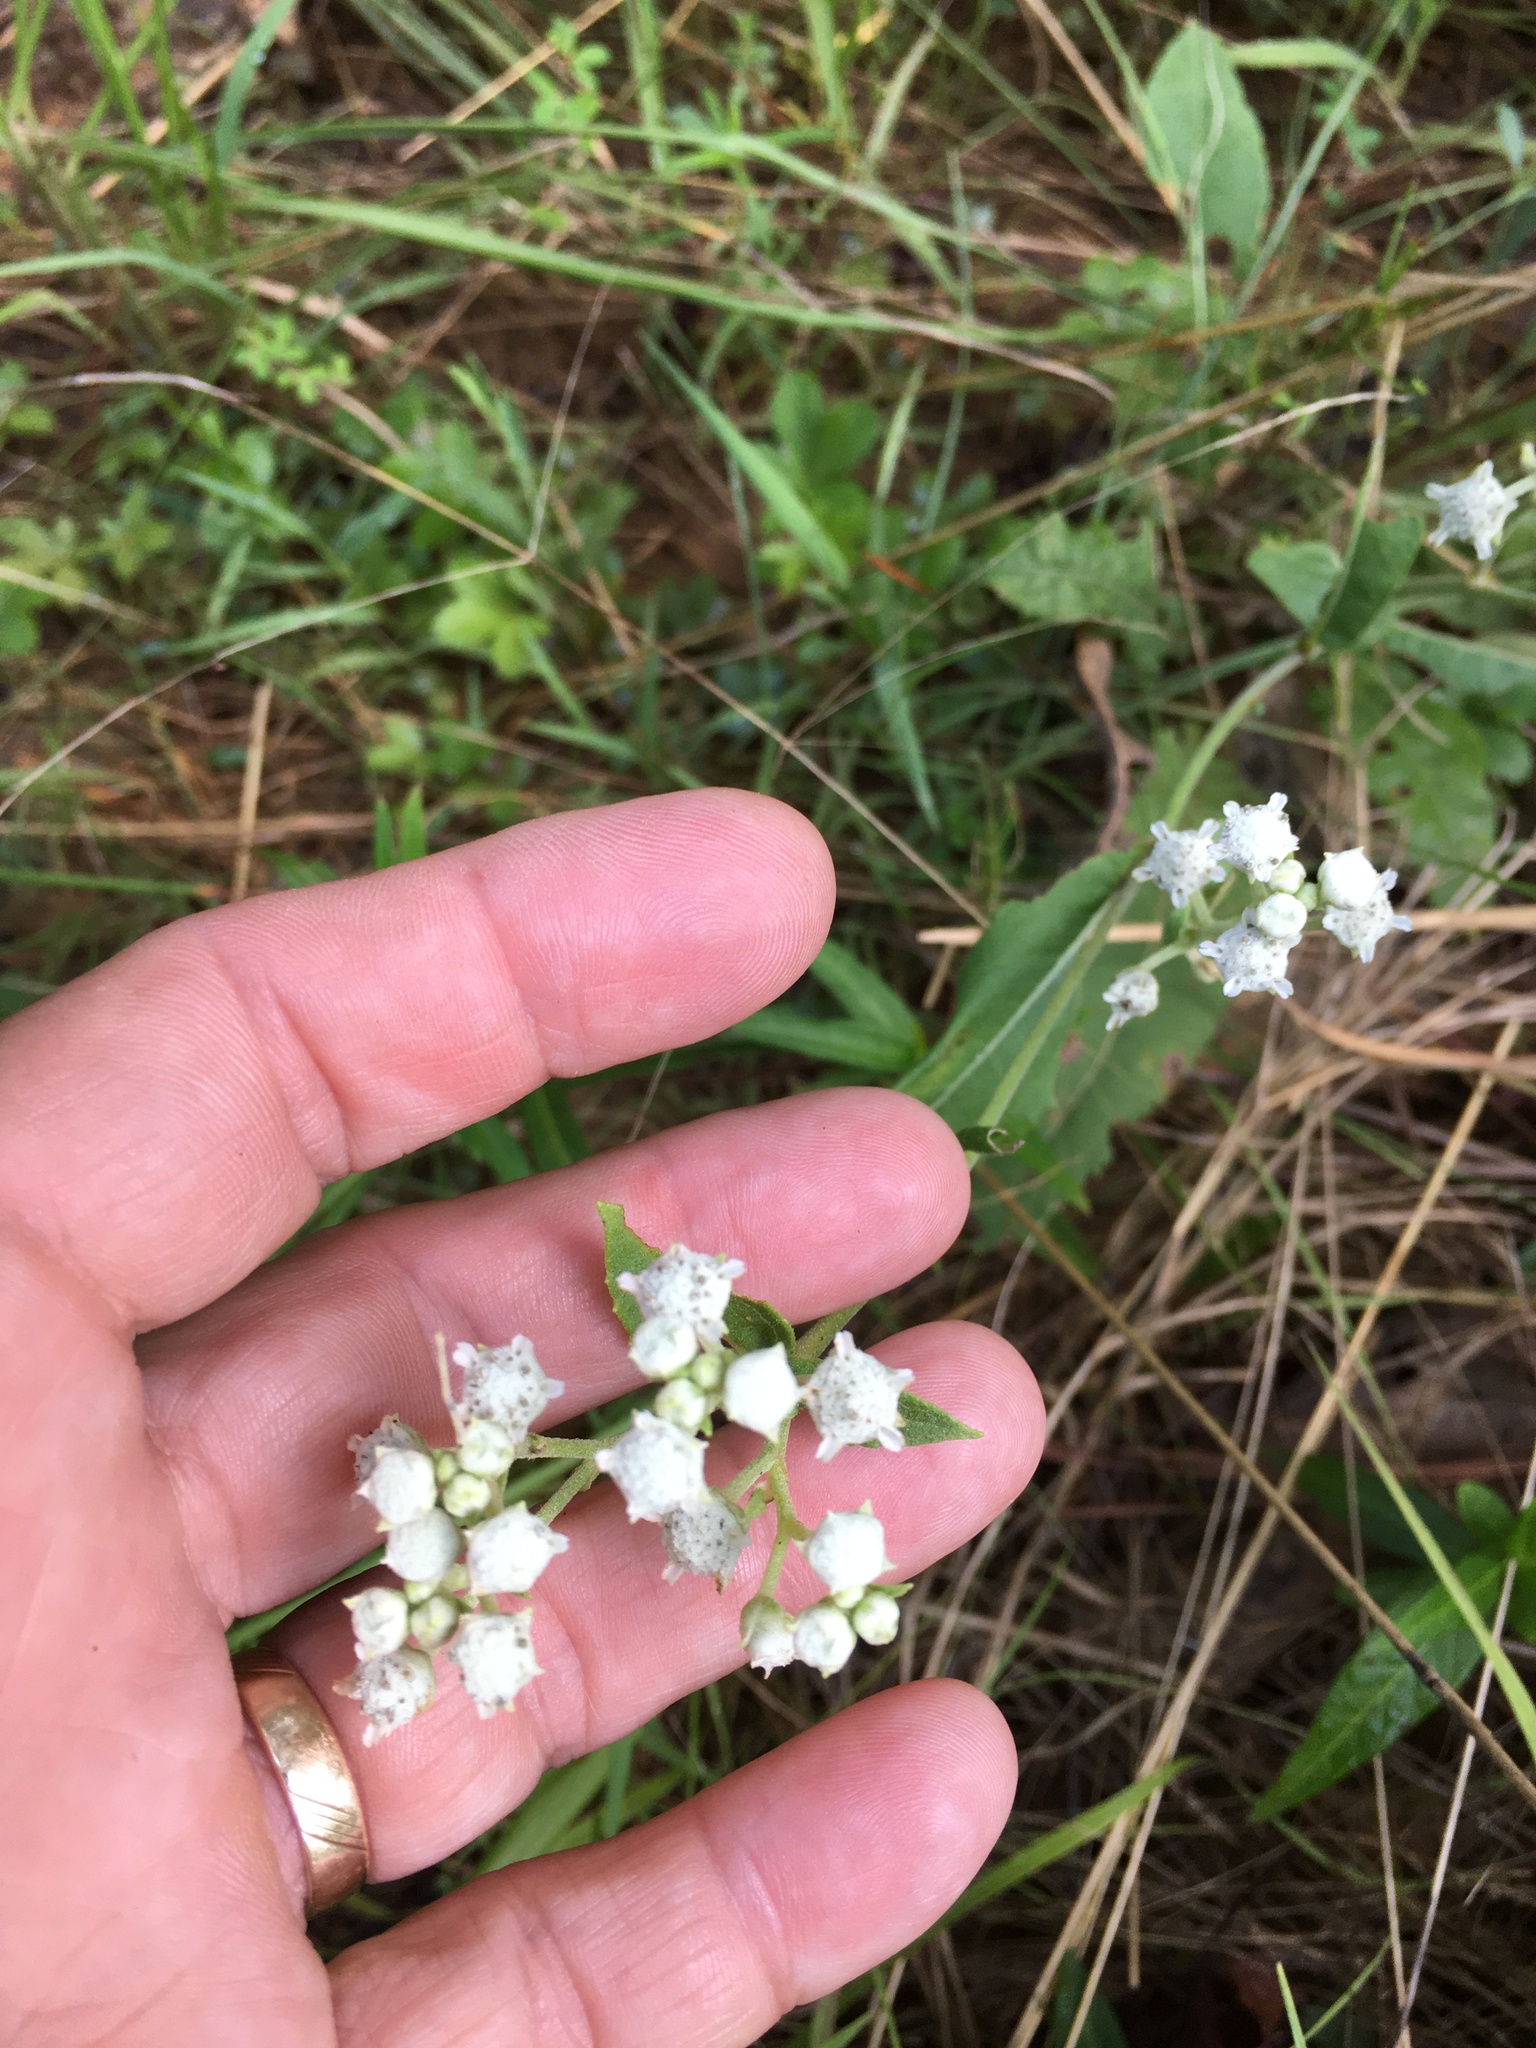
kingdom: Plantae
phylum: Tracheophyta
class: Magnoliopsida
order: Asterales
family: Asteraceae
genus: Parthenium
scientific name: Parthenium integrifolium
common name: American feverfew
